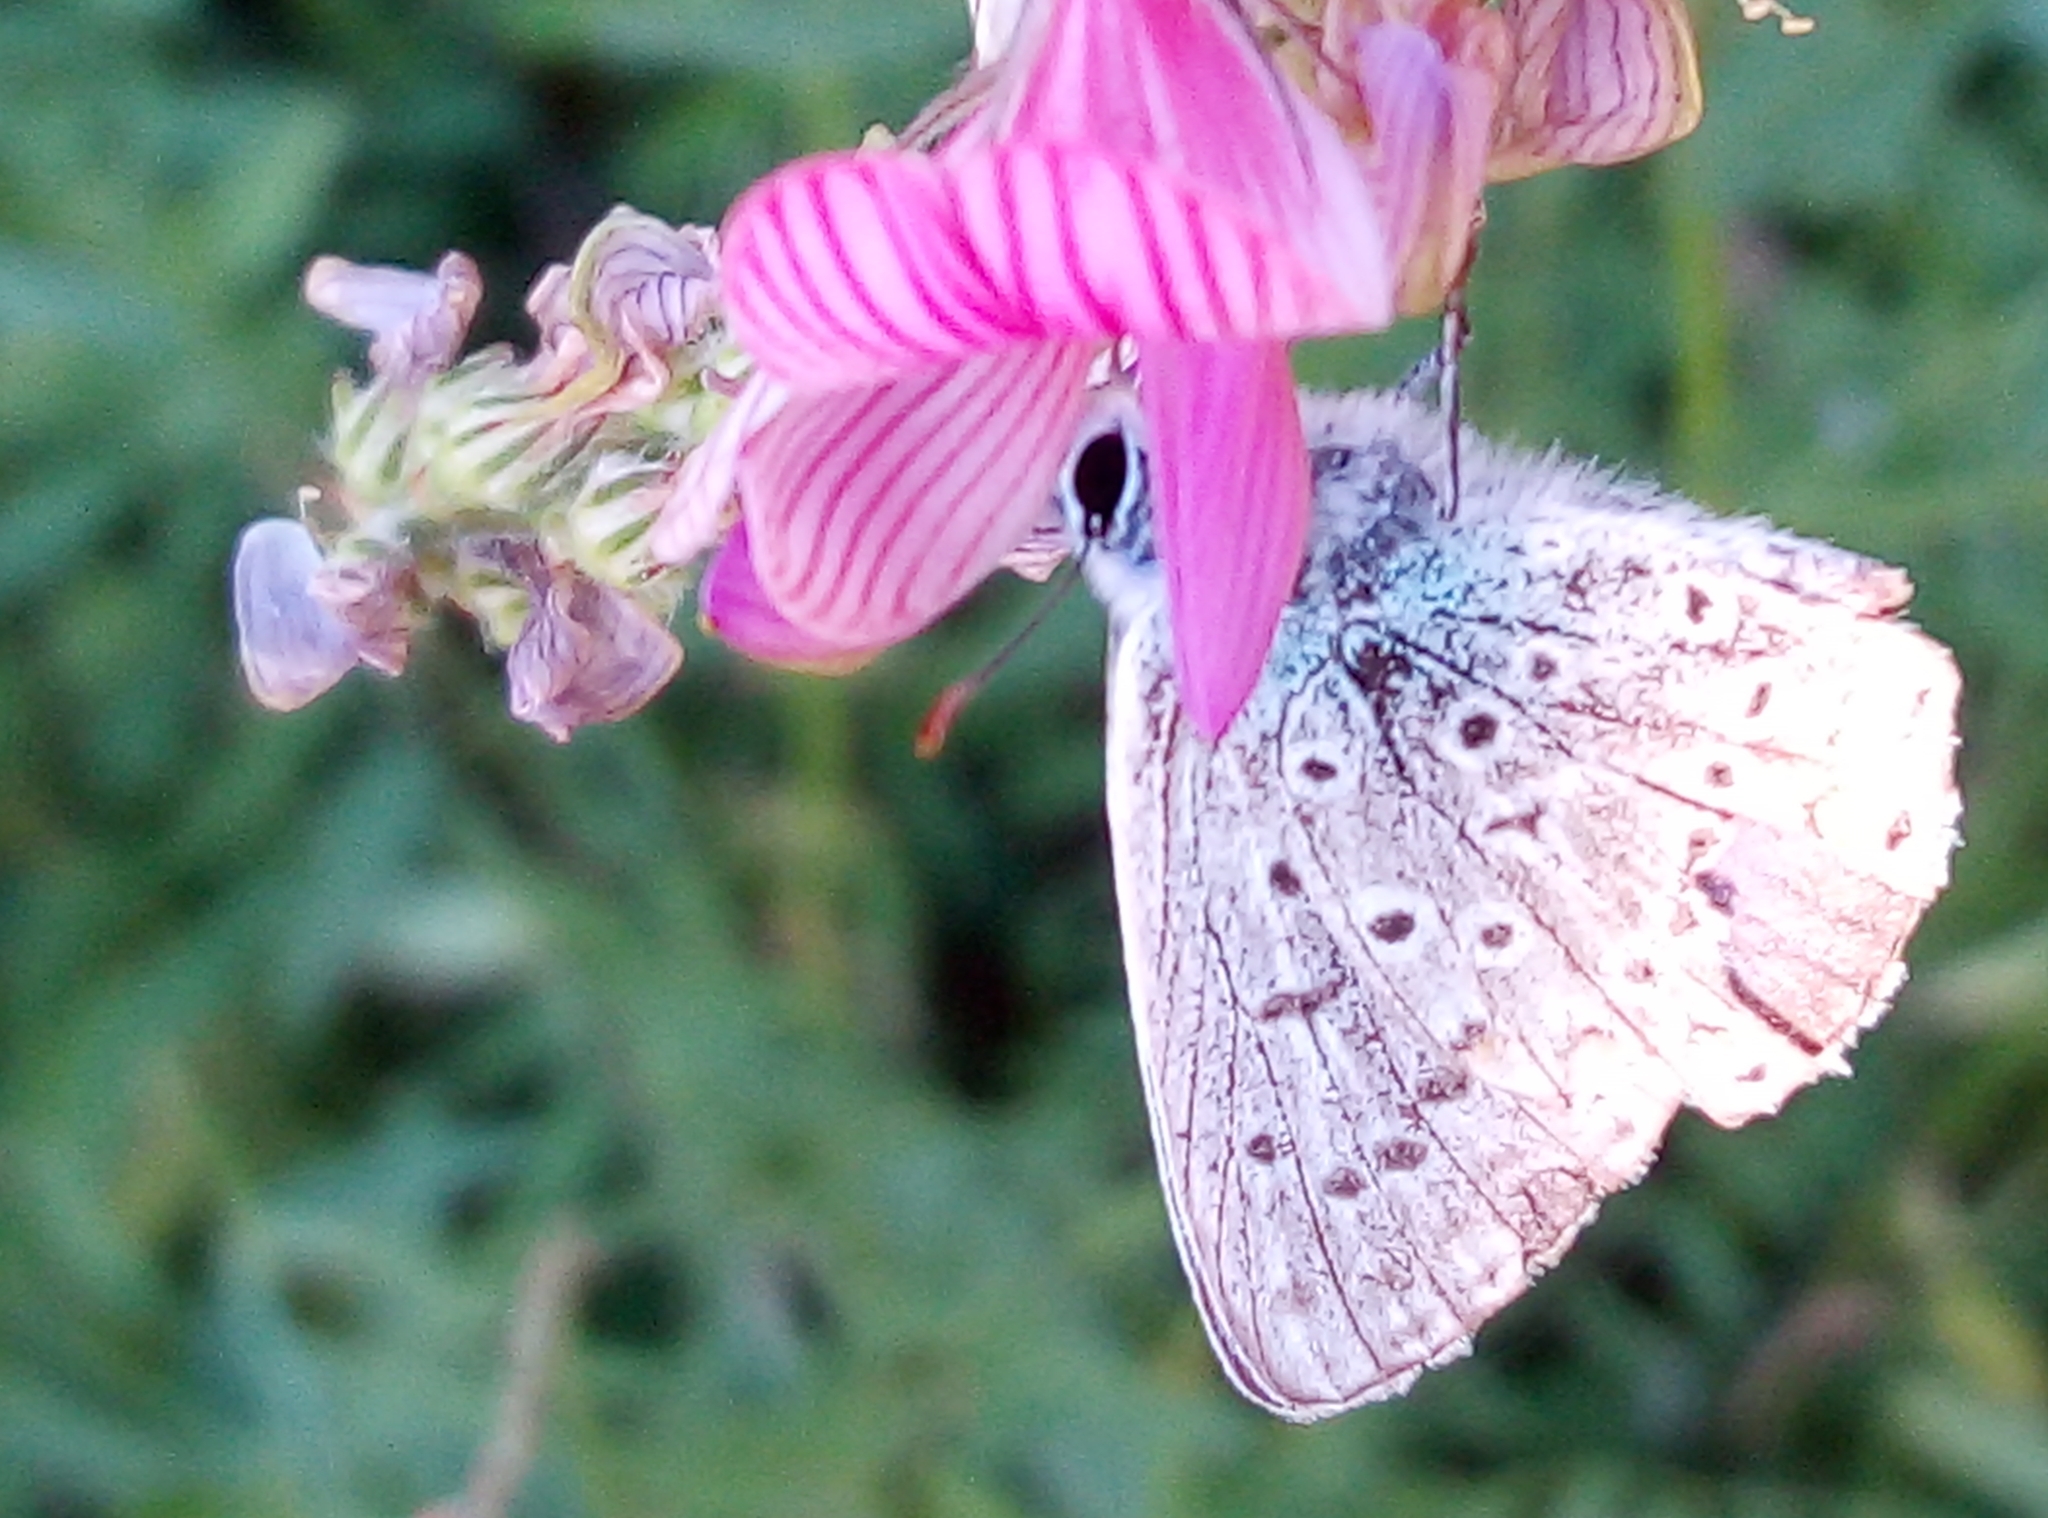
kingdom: Animalia
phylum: Arthropoda
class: Insecta
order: Lepidoptera
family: Lycaenidae
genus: Polyommatus
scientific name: Polyommatus icarus
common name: Common blue
